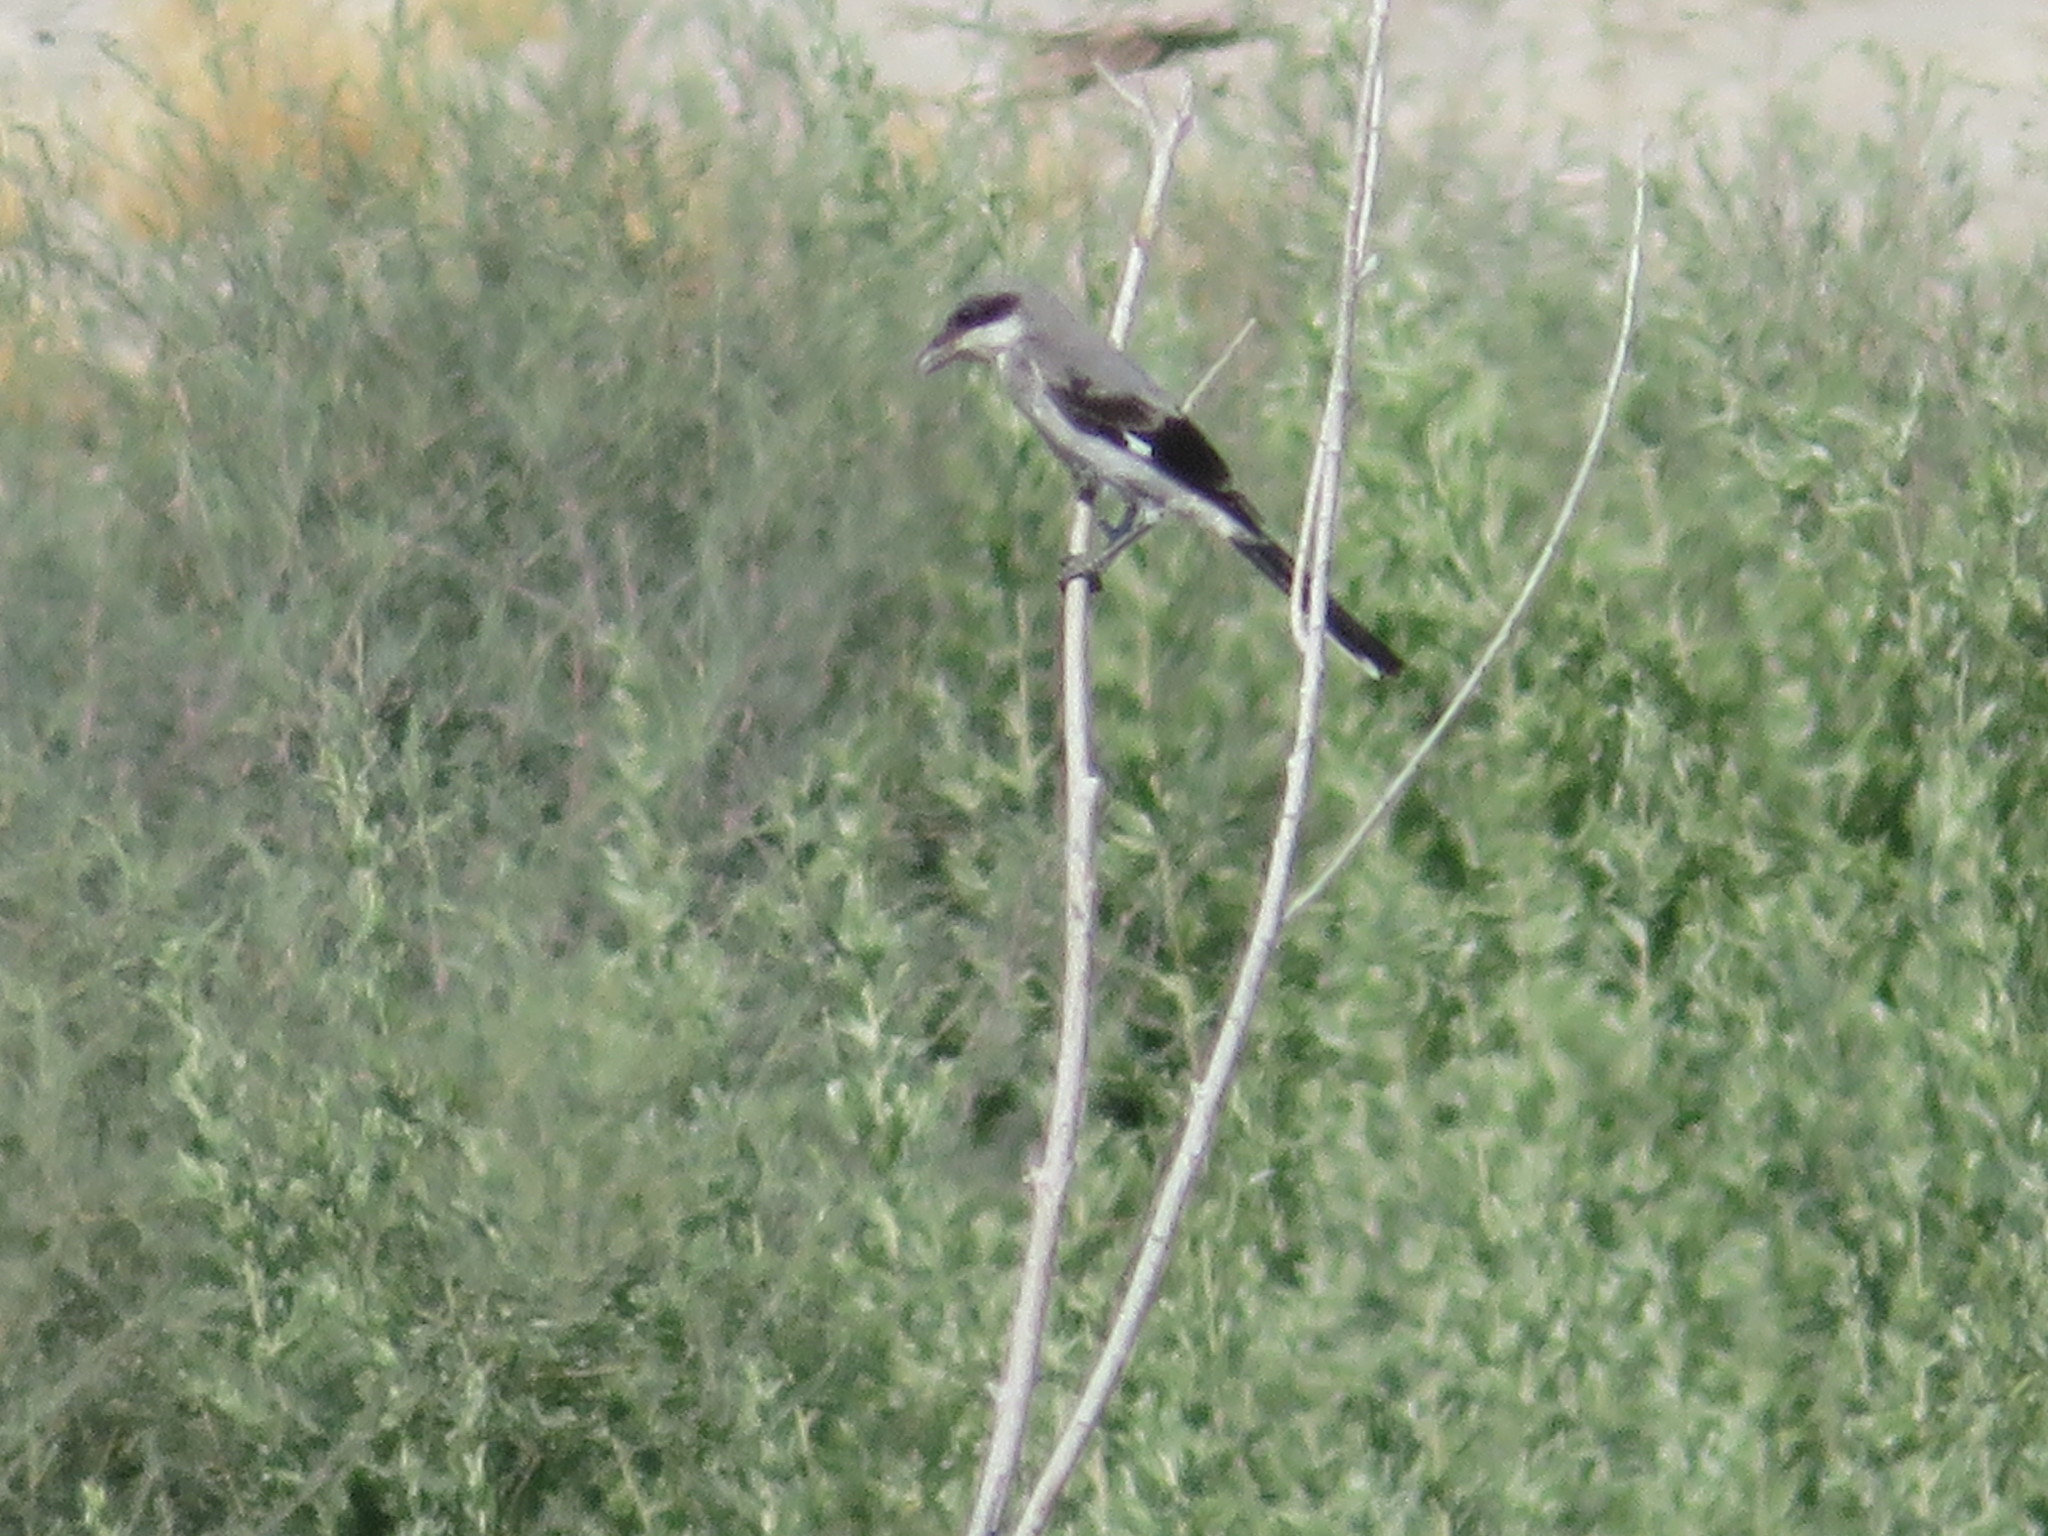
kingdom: Animalia
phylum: Chordata
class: Aves
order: Passeriformes
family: Laniidae
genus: Lanius
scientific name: Lanius ludovicianus
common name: Loggerhead shrike
